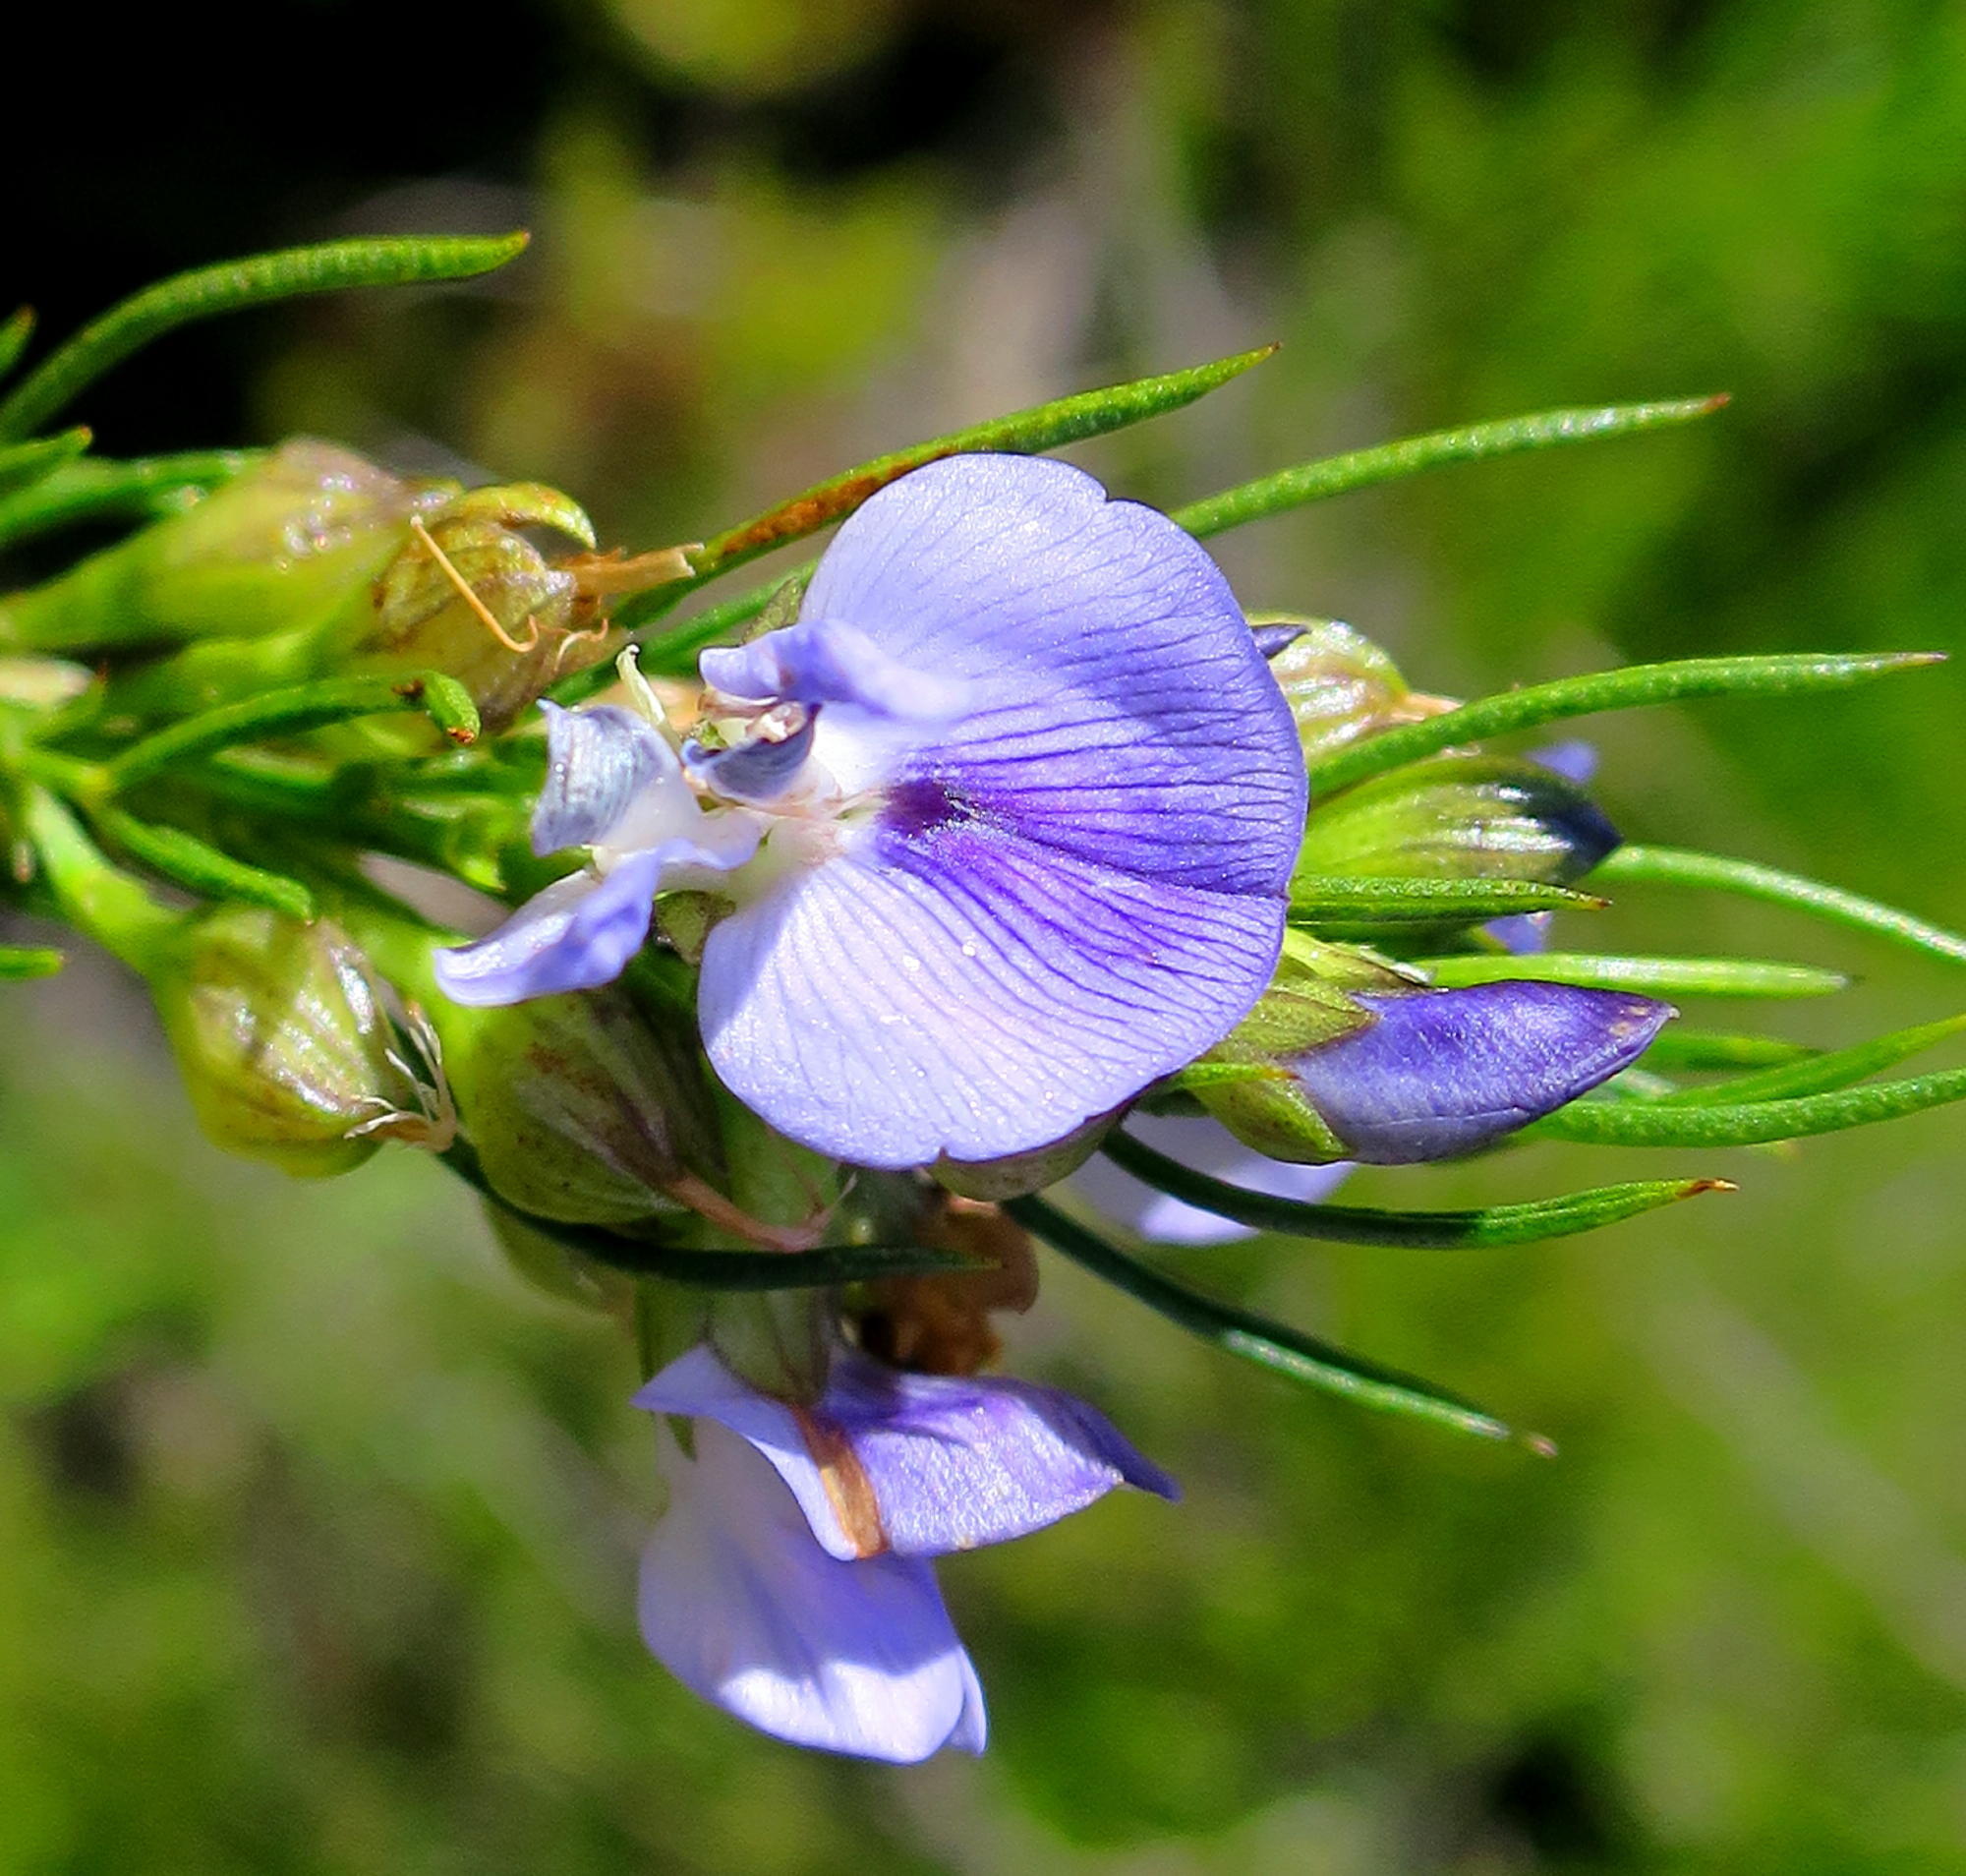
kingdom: Plantae
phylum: Tracheophyta
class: Magnoliopsida
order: Fabales
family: Fabaceae
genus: Psoralea
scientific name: Psoralea diturnerae
